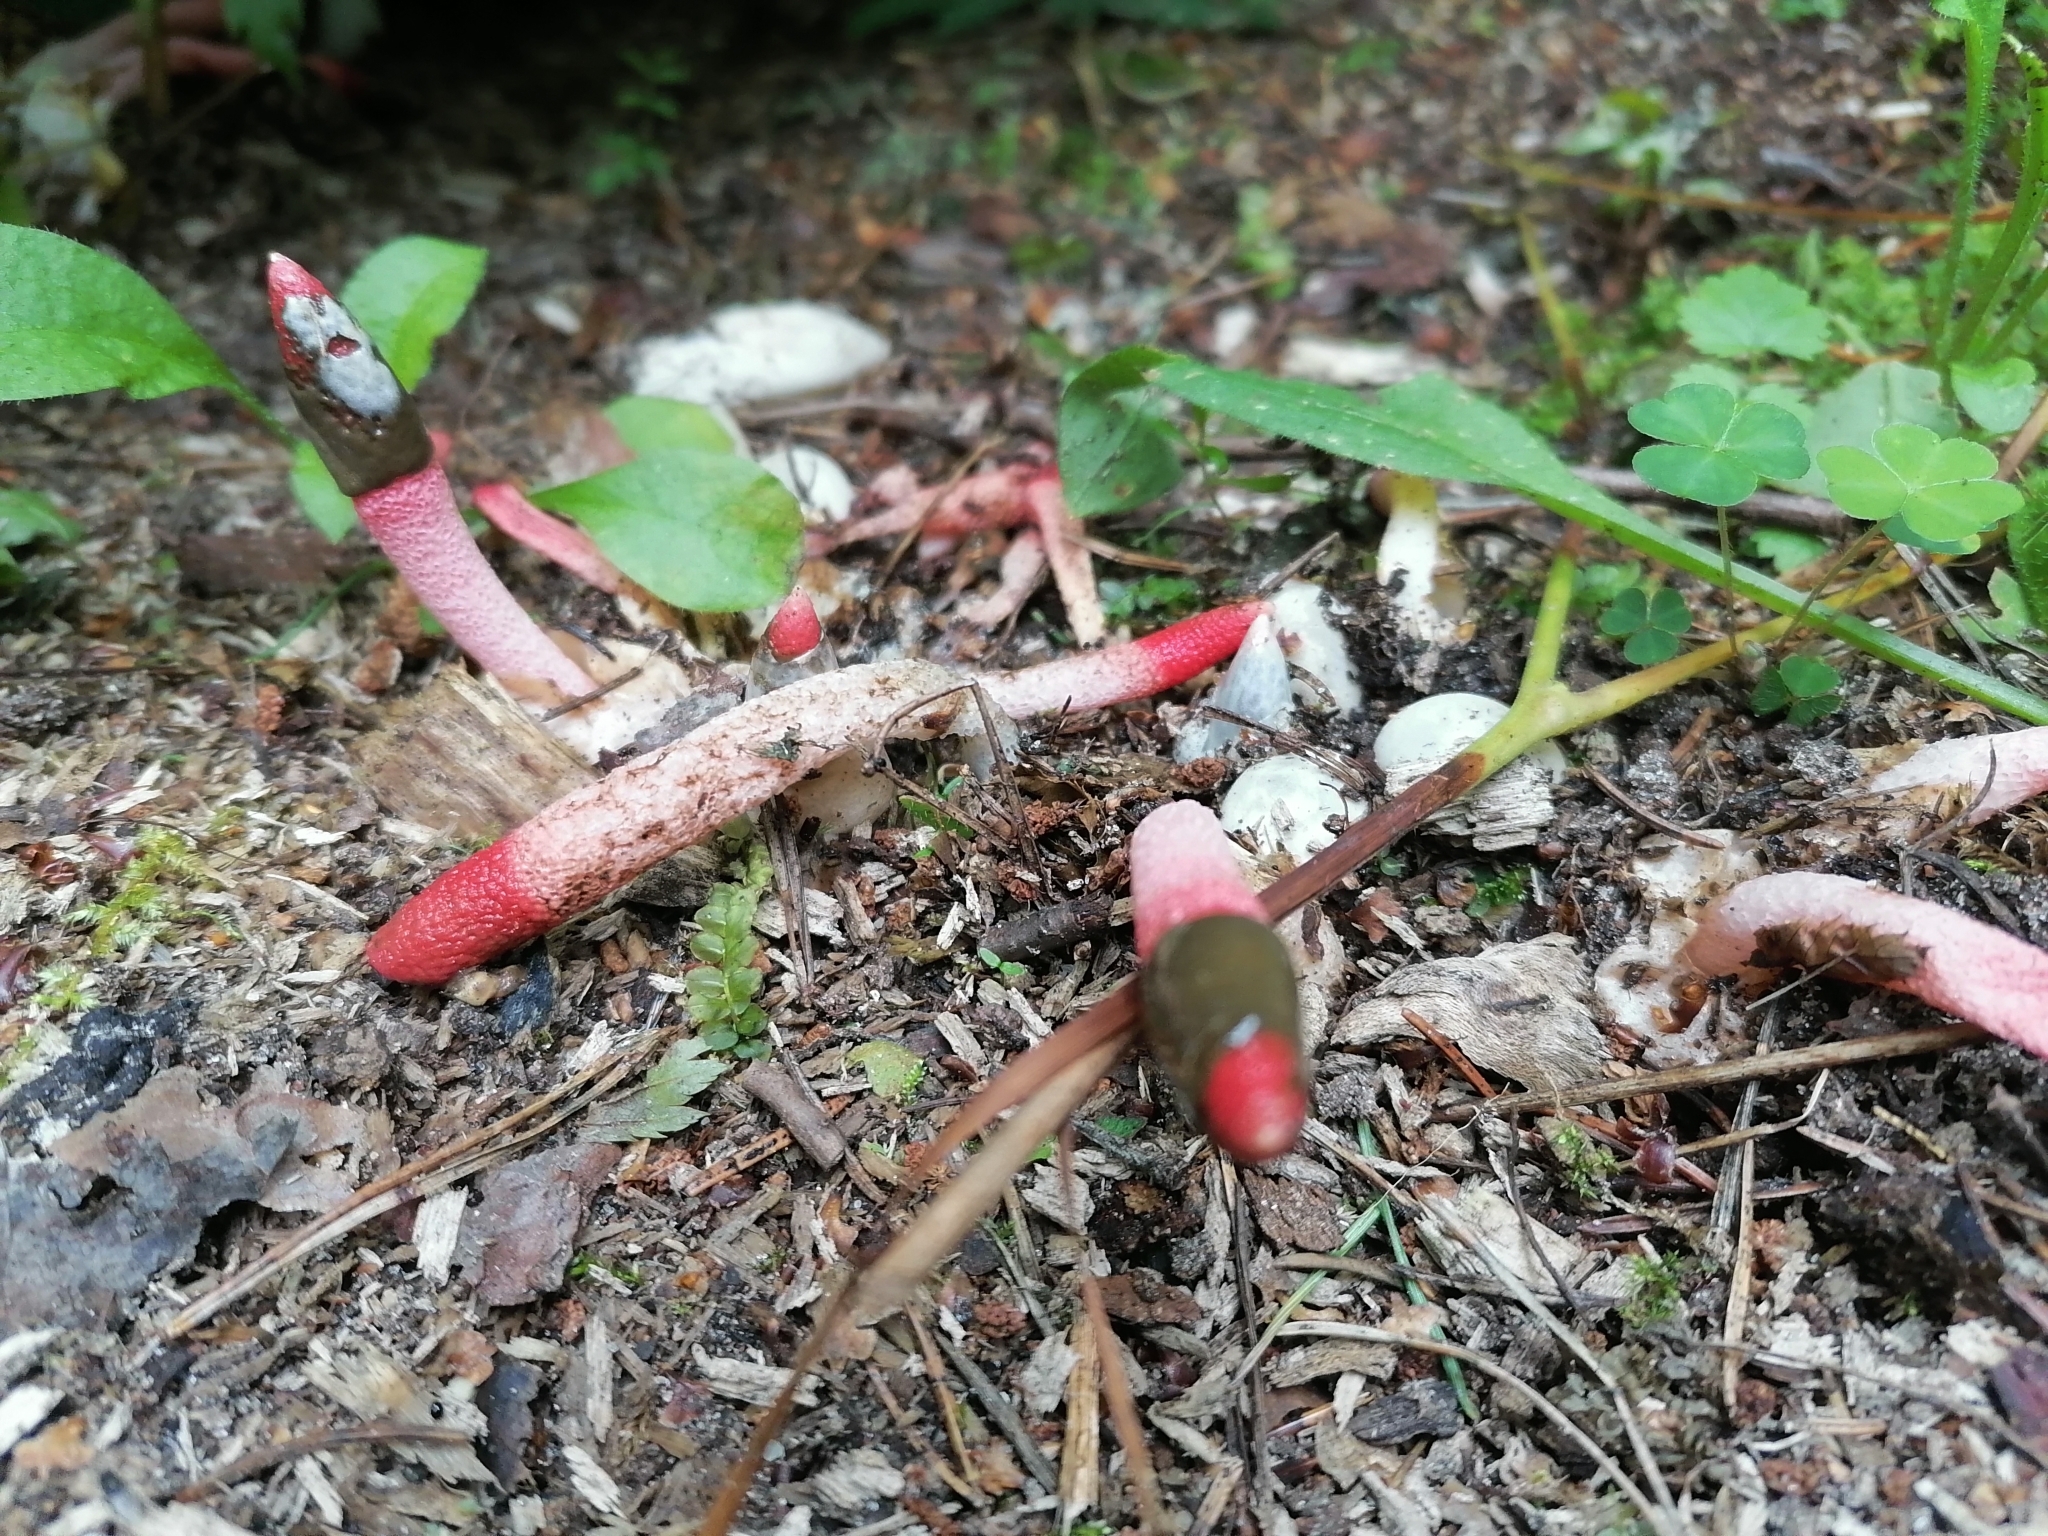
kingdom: Fungi
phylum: Basidiomycota
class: Agaricomycetes
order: Phallales
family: Phallaceae
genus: Mutinus
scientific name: Mutinus ravenelii
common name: Red stinkhorn
